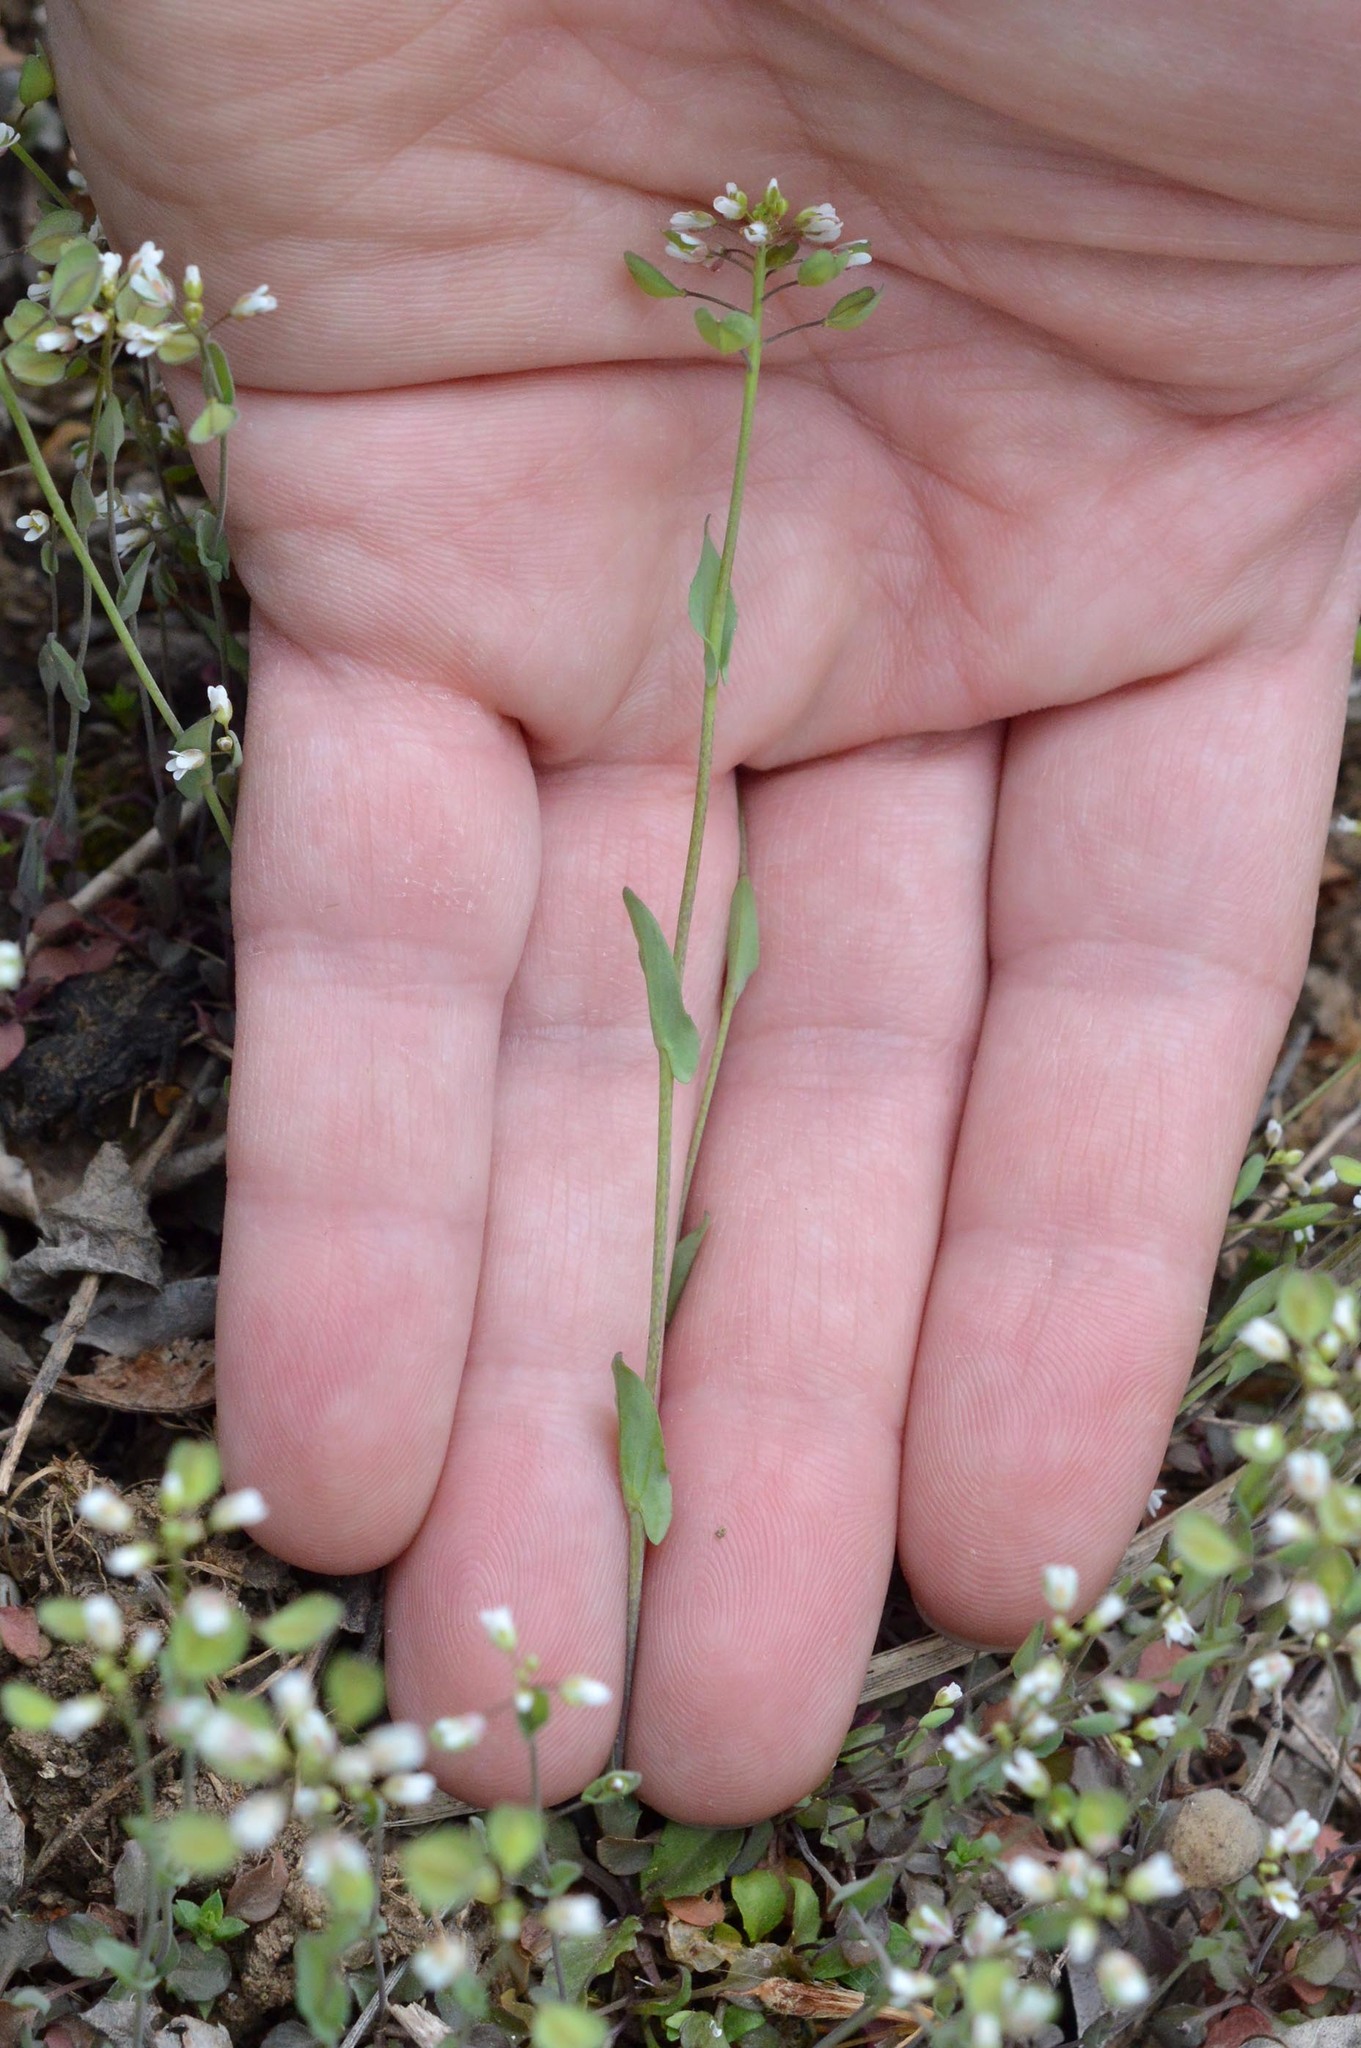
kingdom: Plantae
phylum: Tracheophyta
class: Magnoliopsida
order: Brassicales
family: Brassicaceae
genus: Noccaea
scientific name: Noccaea perfoliata
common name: Perfoliate pennycress
